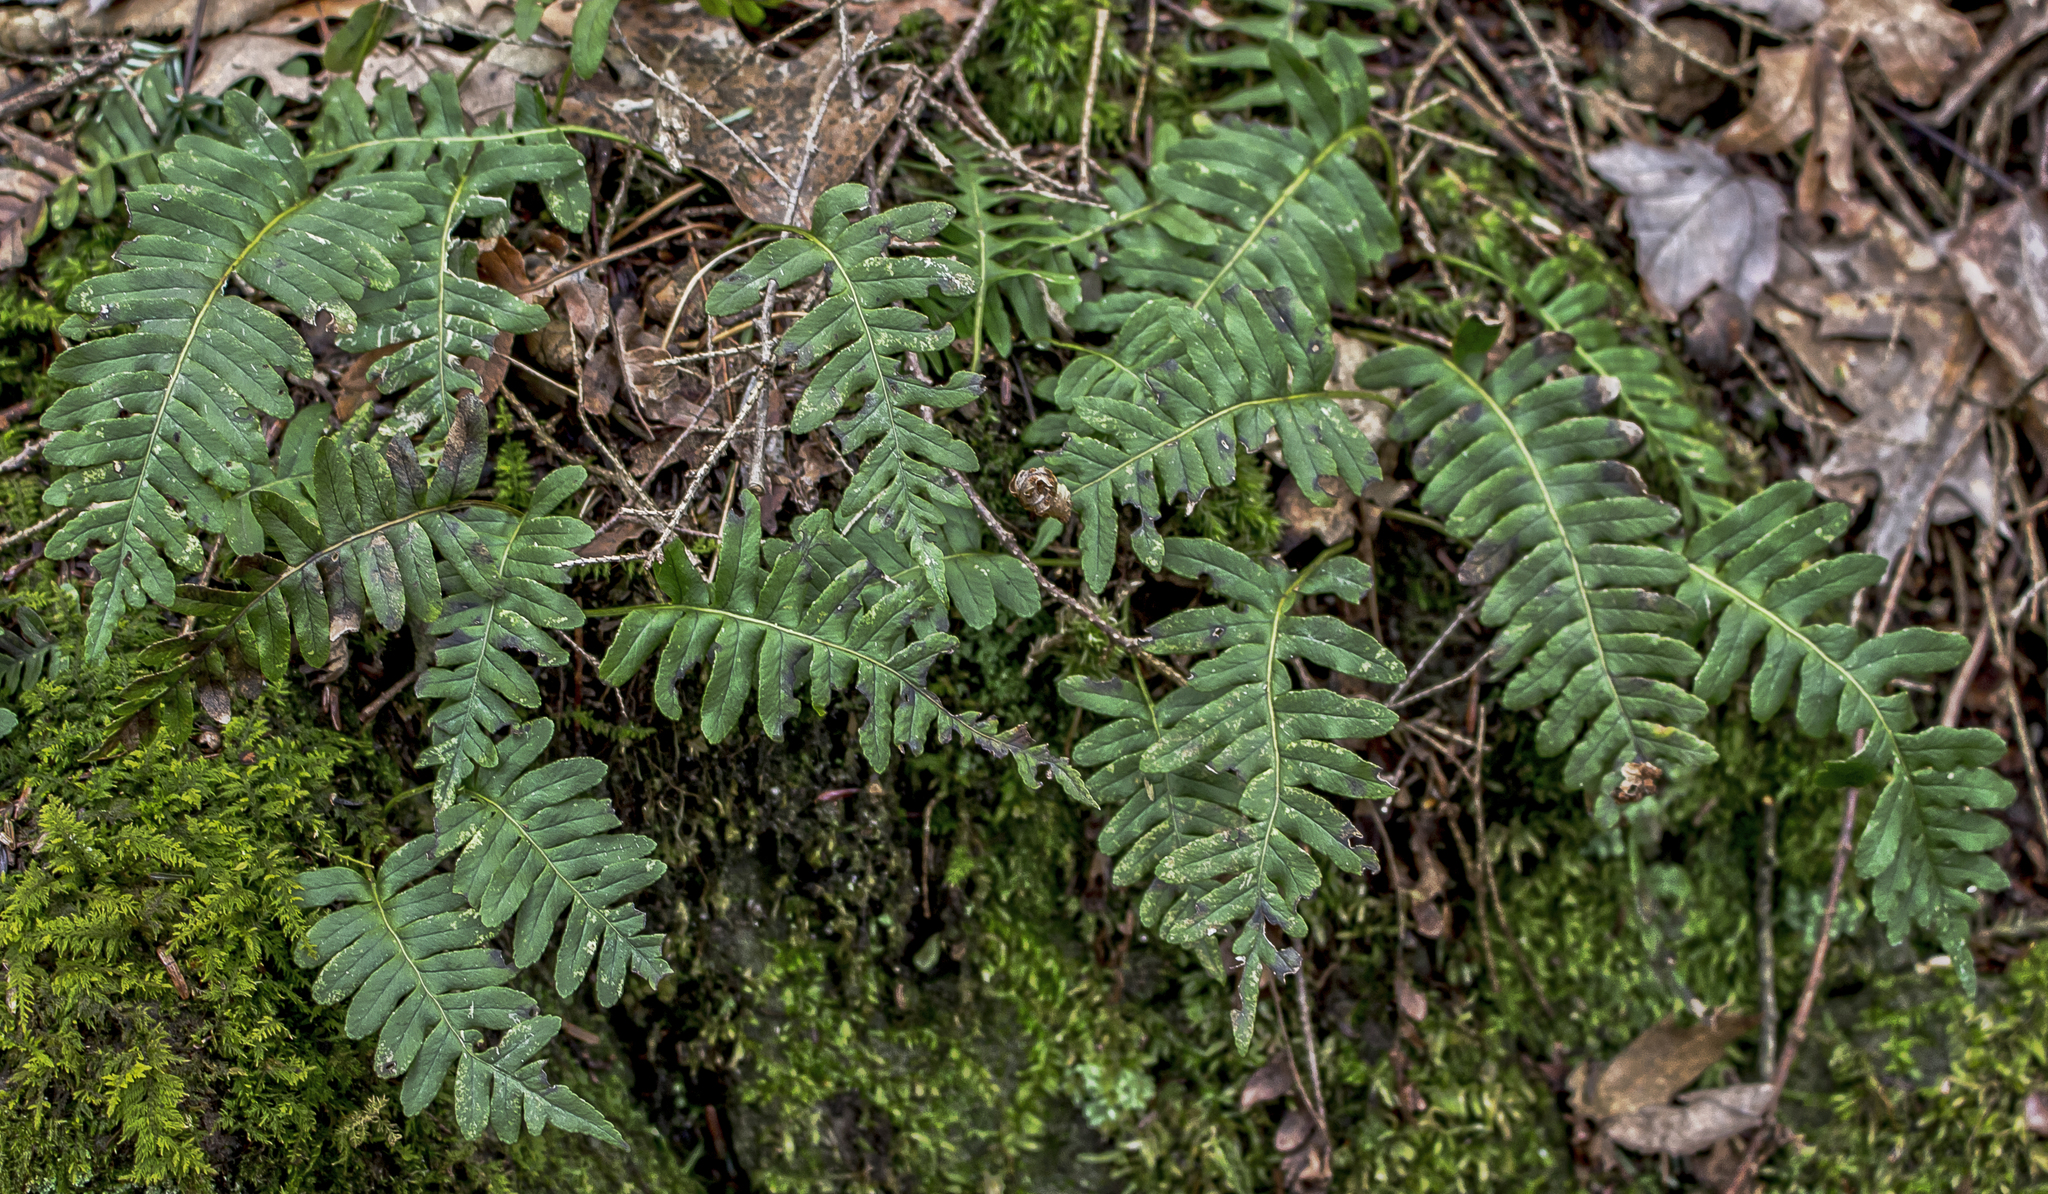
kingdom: Plantae
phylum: Tracheophyta
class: Polypodiopsida
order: Polypodiales
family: Polypodiaceae
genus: Polypodium
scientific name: Polypodium virginianum
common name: American wall fern
